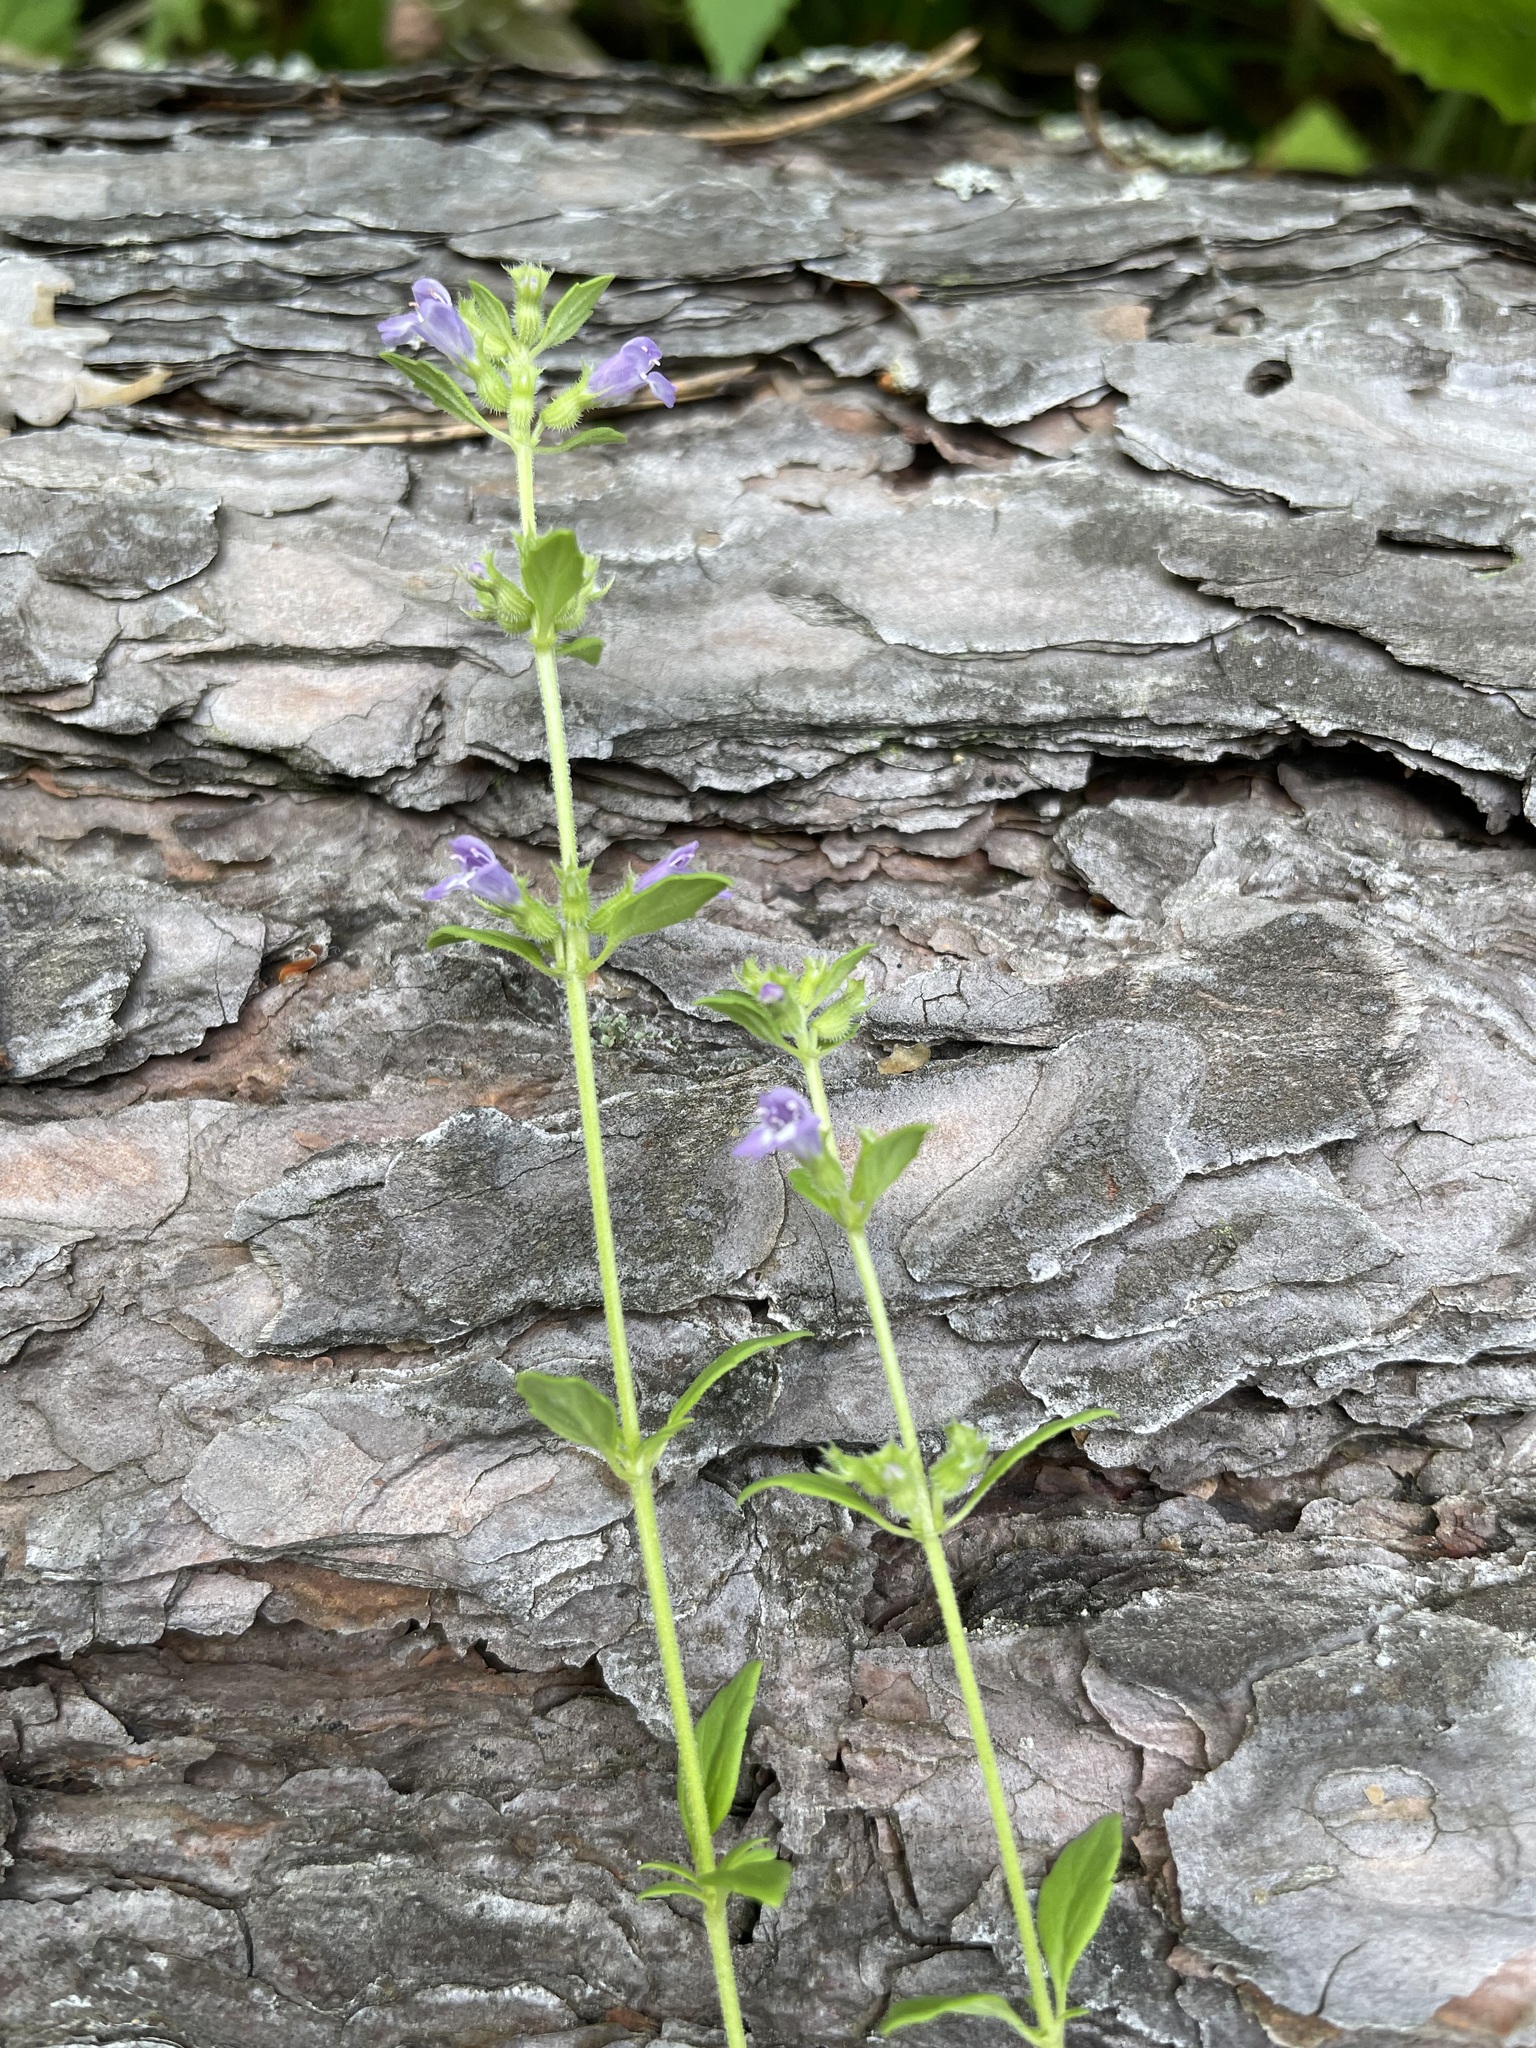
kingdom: Plantae
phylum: Tracheophyta
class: Magnoliopsida
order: Lamiales
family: Lamiaceae
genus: Clinopodium
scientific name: Clinopodium acinos
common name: Basil thyme
